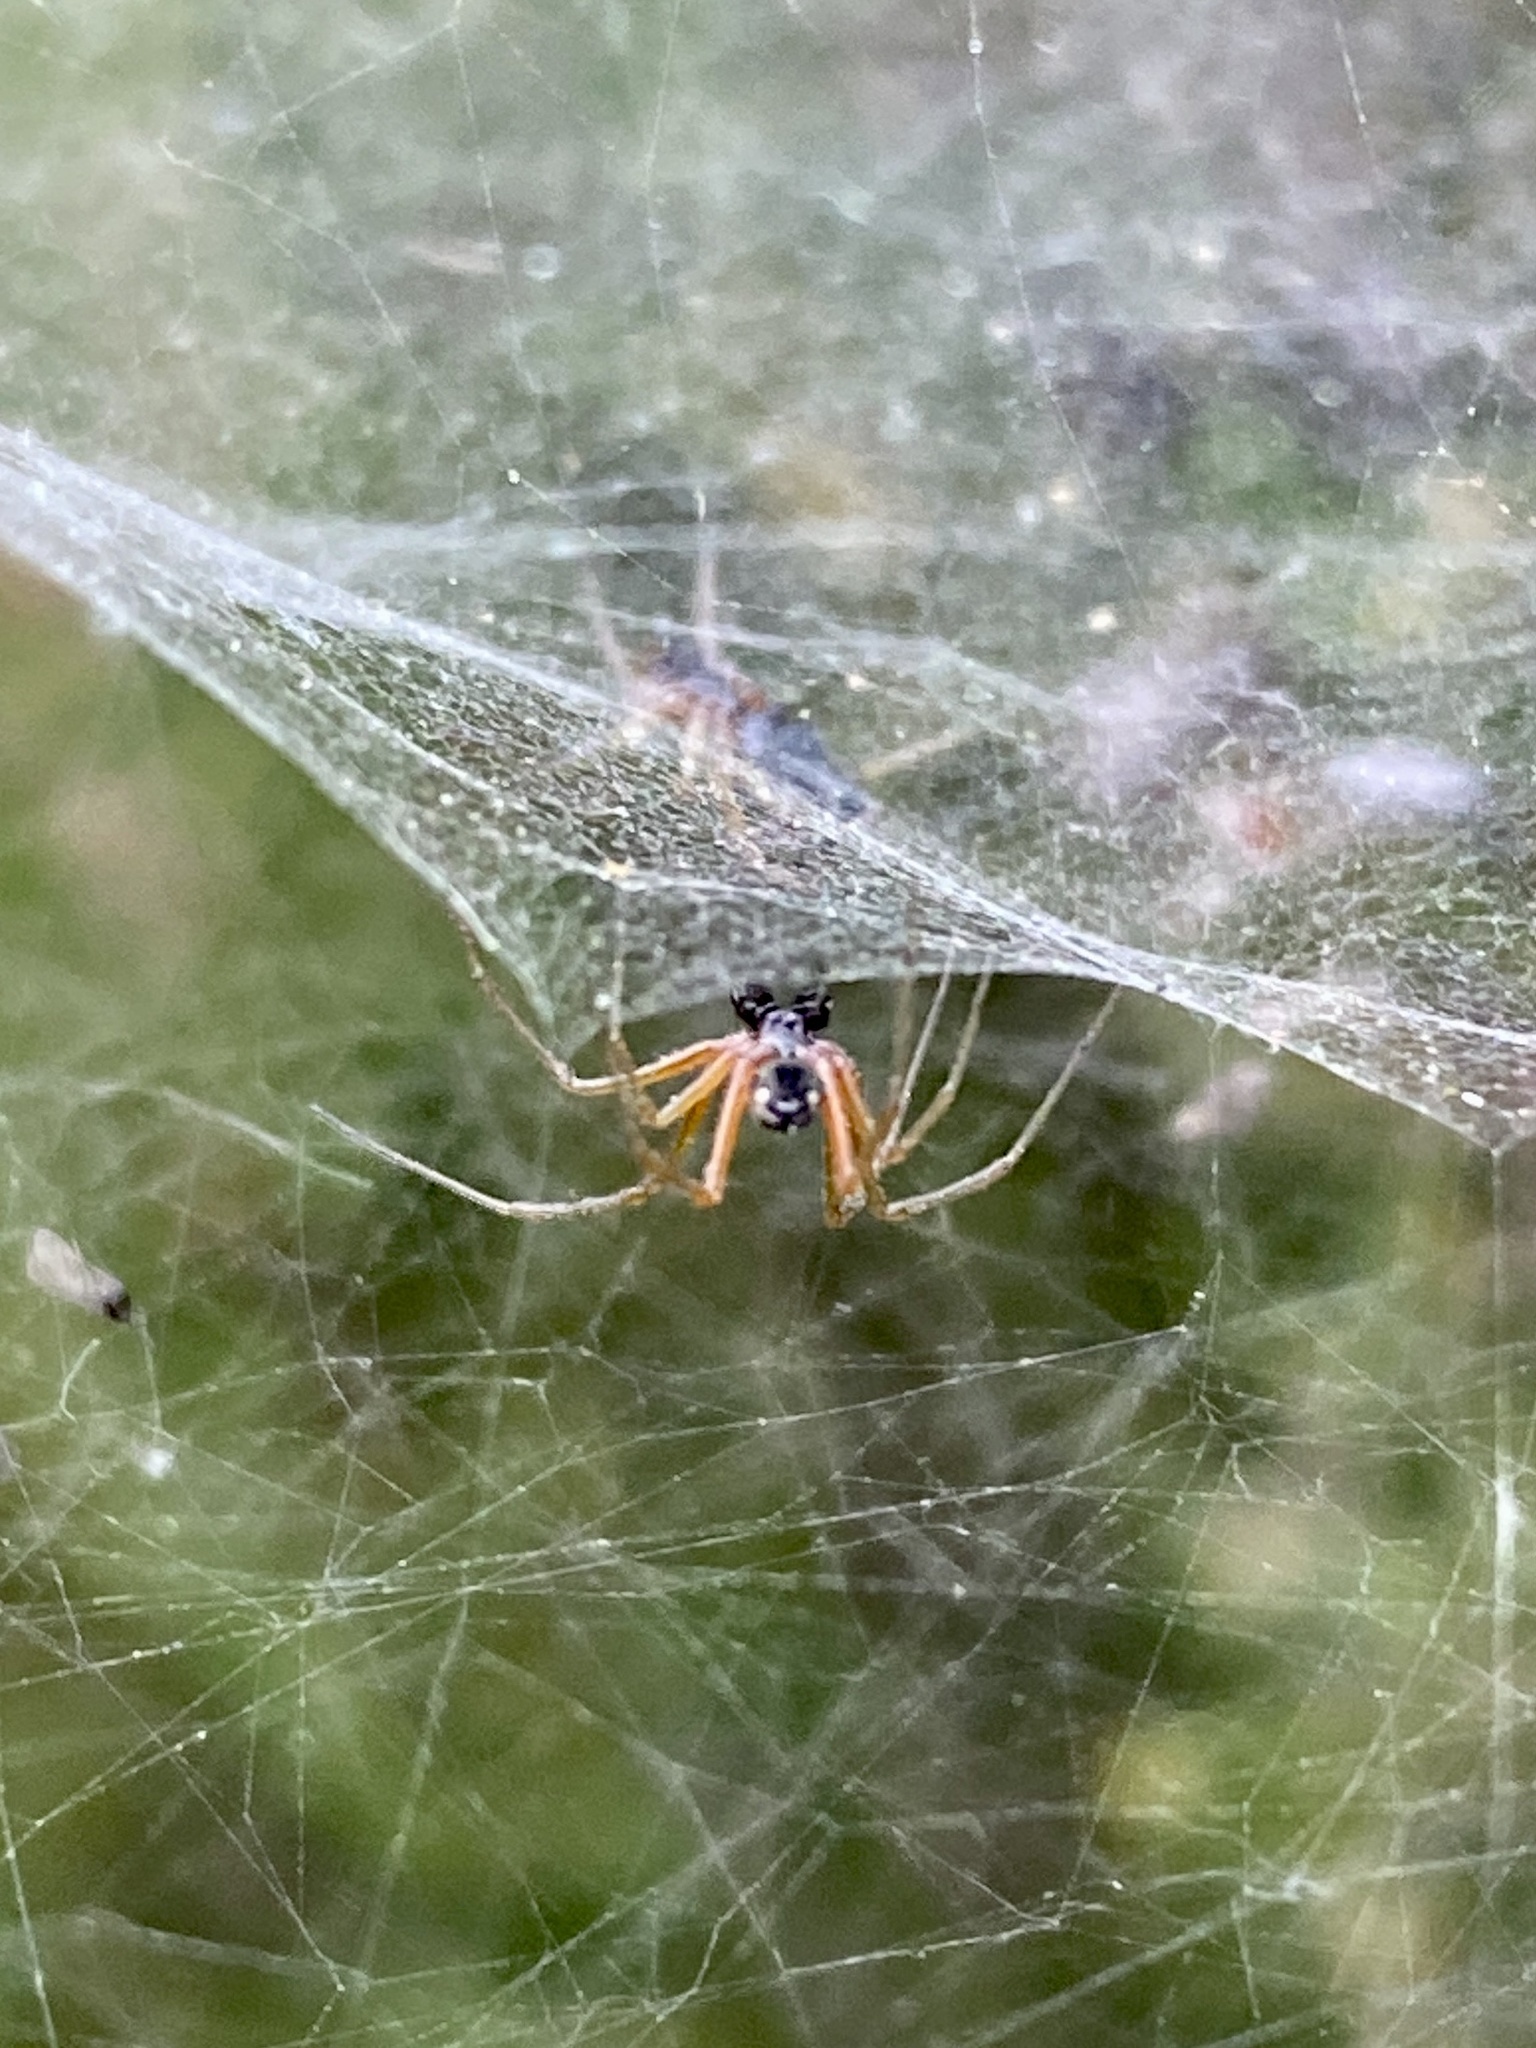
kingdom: Animalia
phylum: Arthropoda
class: Arachnida
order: Araneae
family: Linyphiidae
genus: Frontinellina
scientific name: Frontinellina frutetorum
